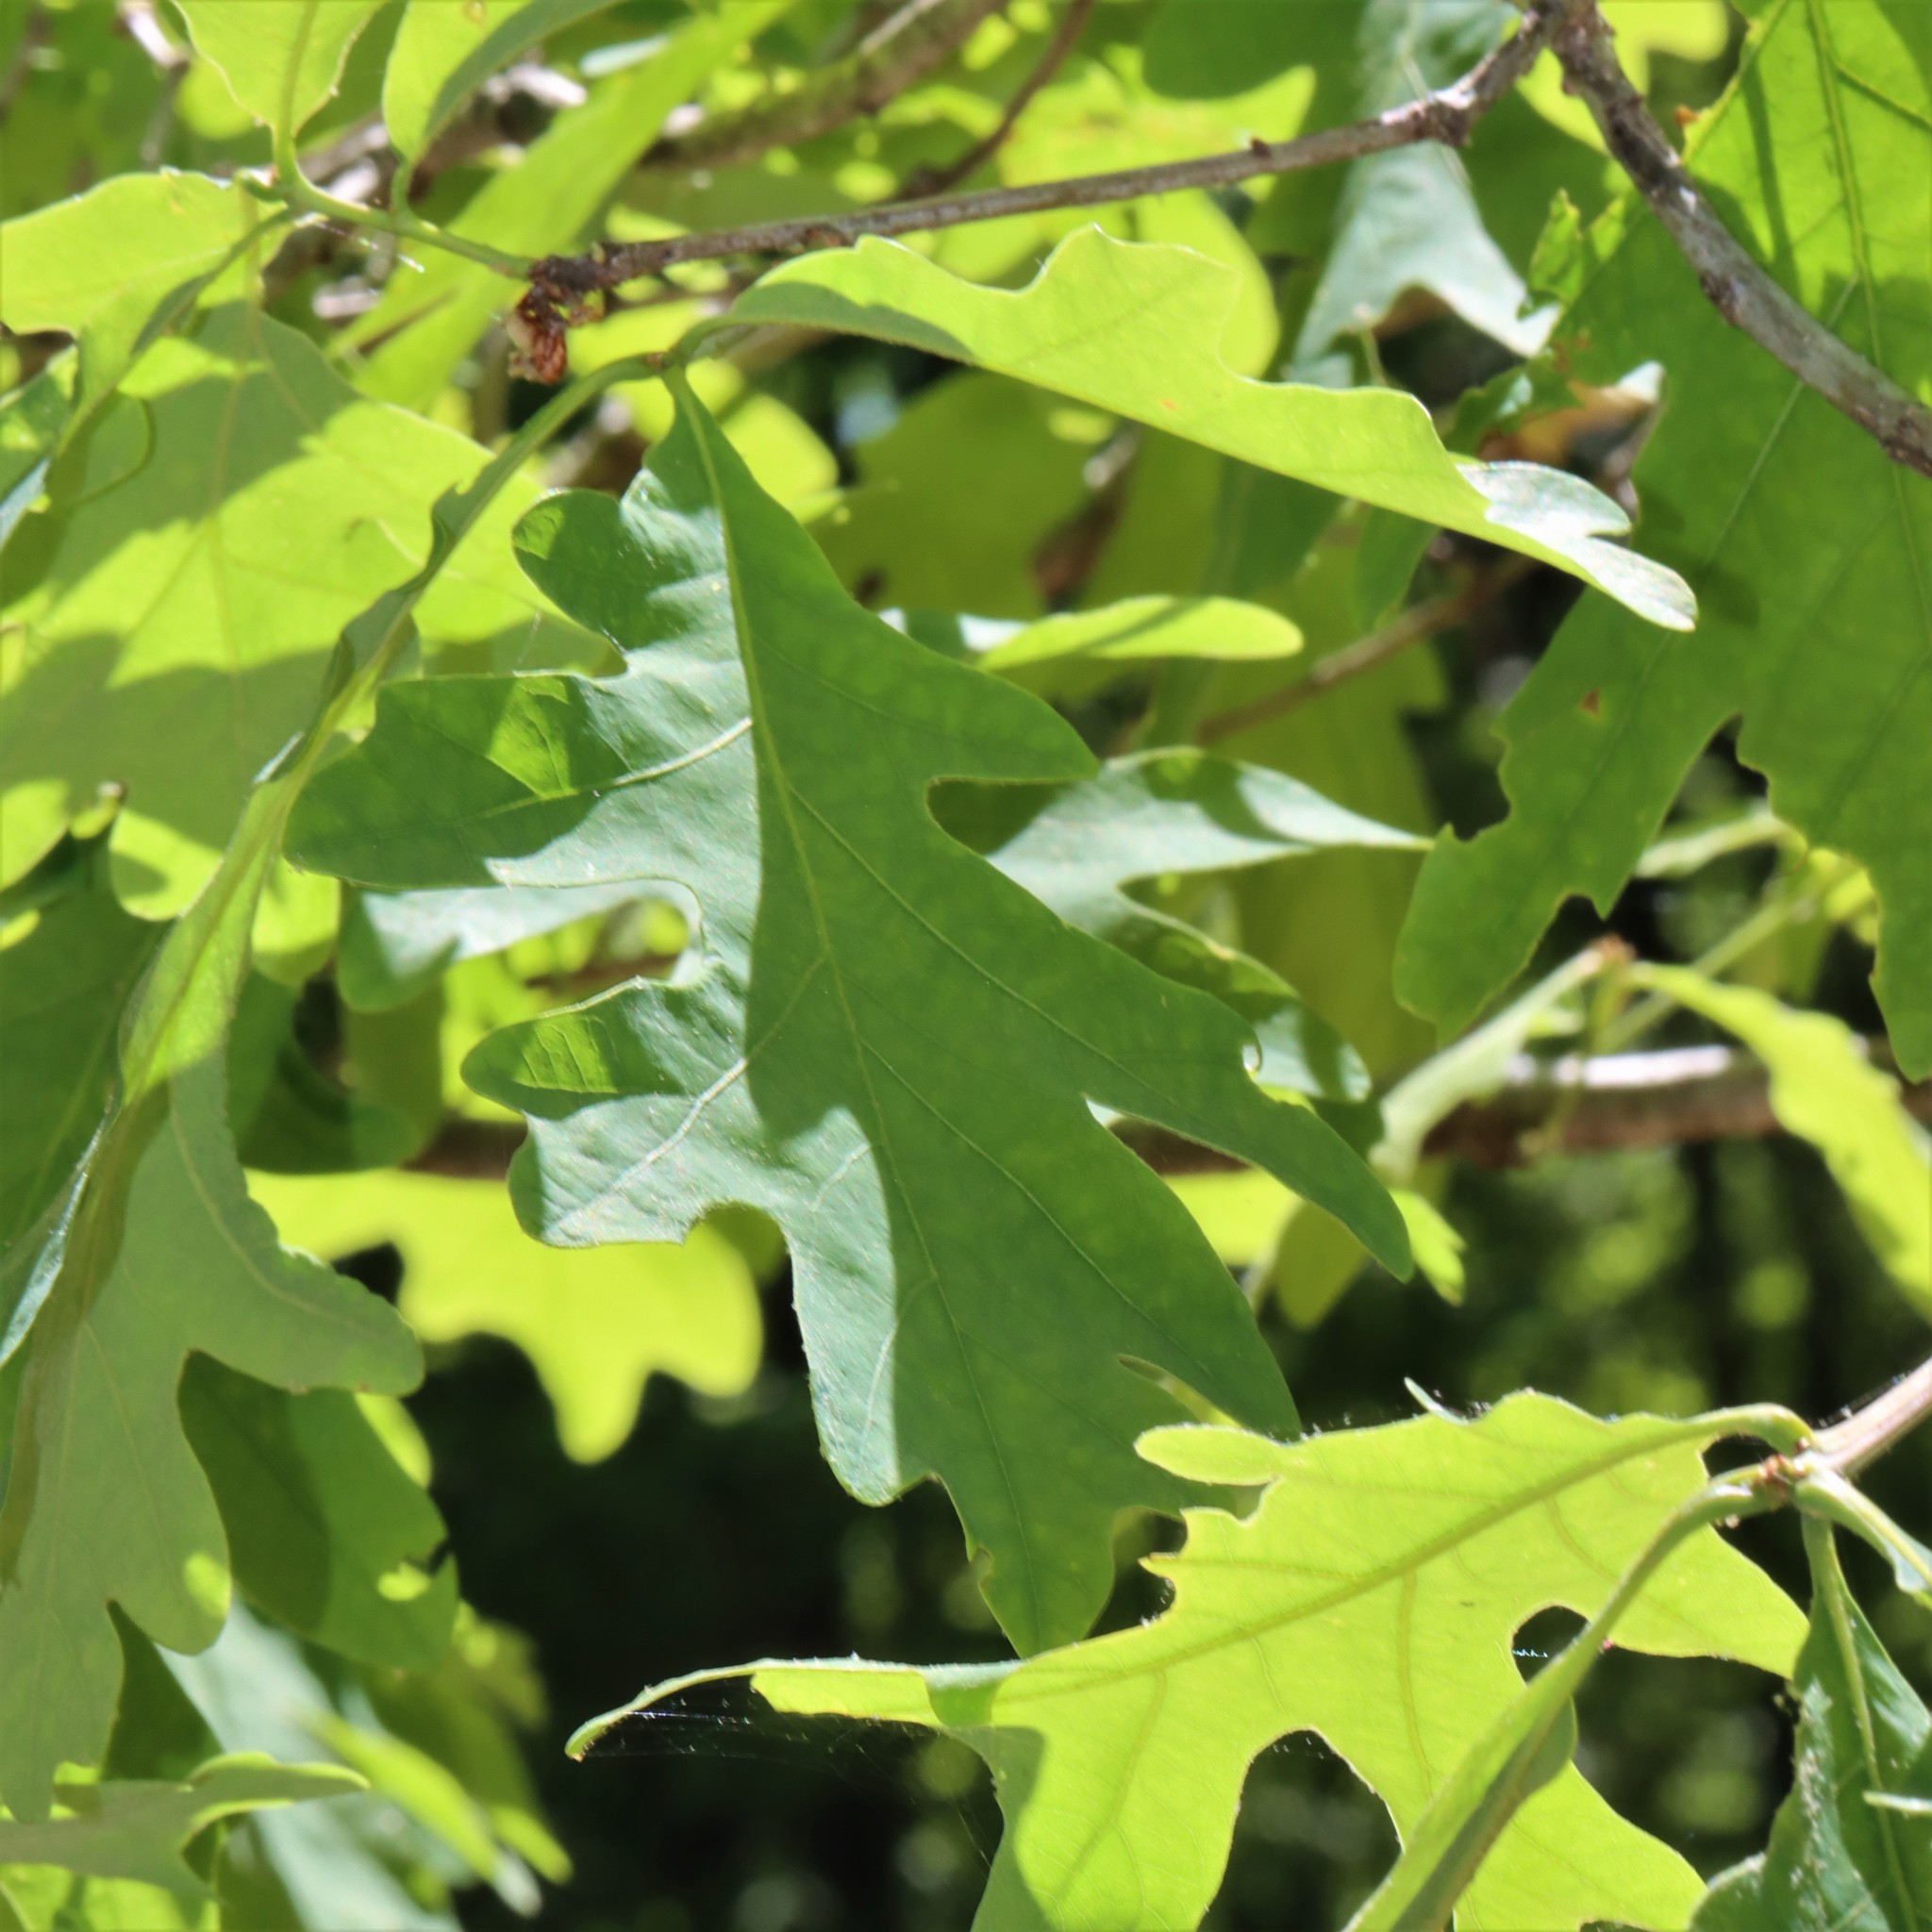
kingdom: Animalia
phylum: Arthropoda
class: Insecta
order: Hymenoptera
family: Cynipidae
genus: Callirhytis
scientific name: Callirhytis
